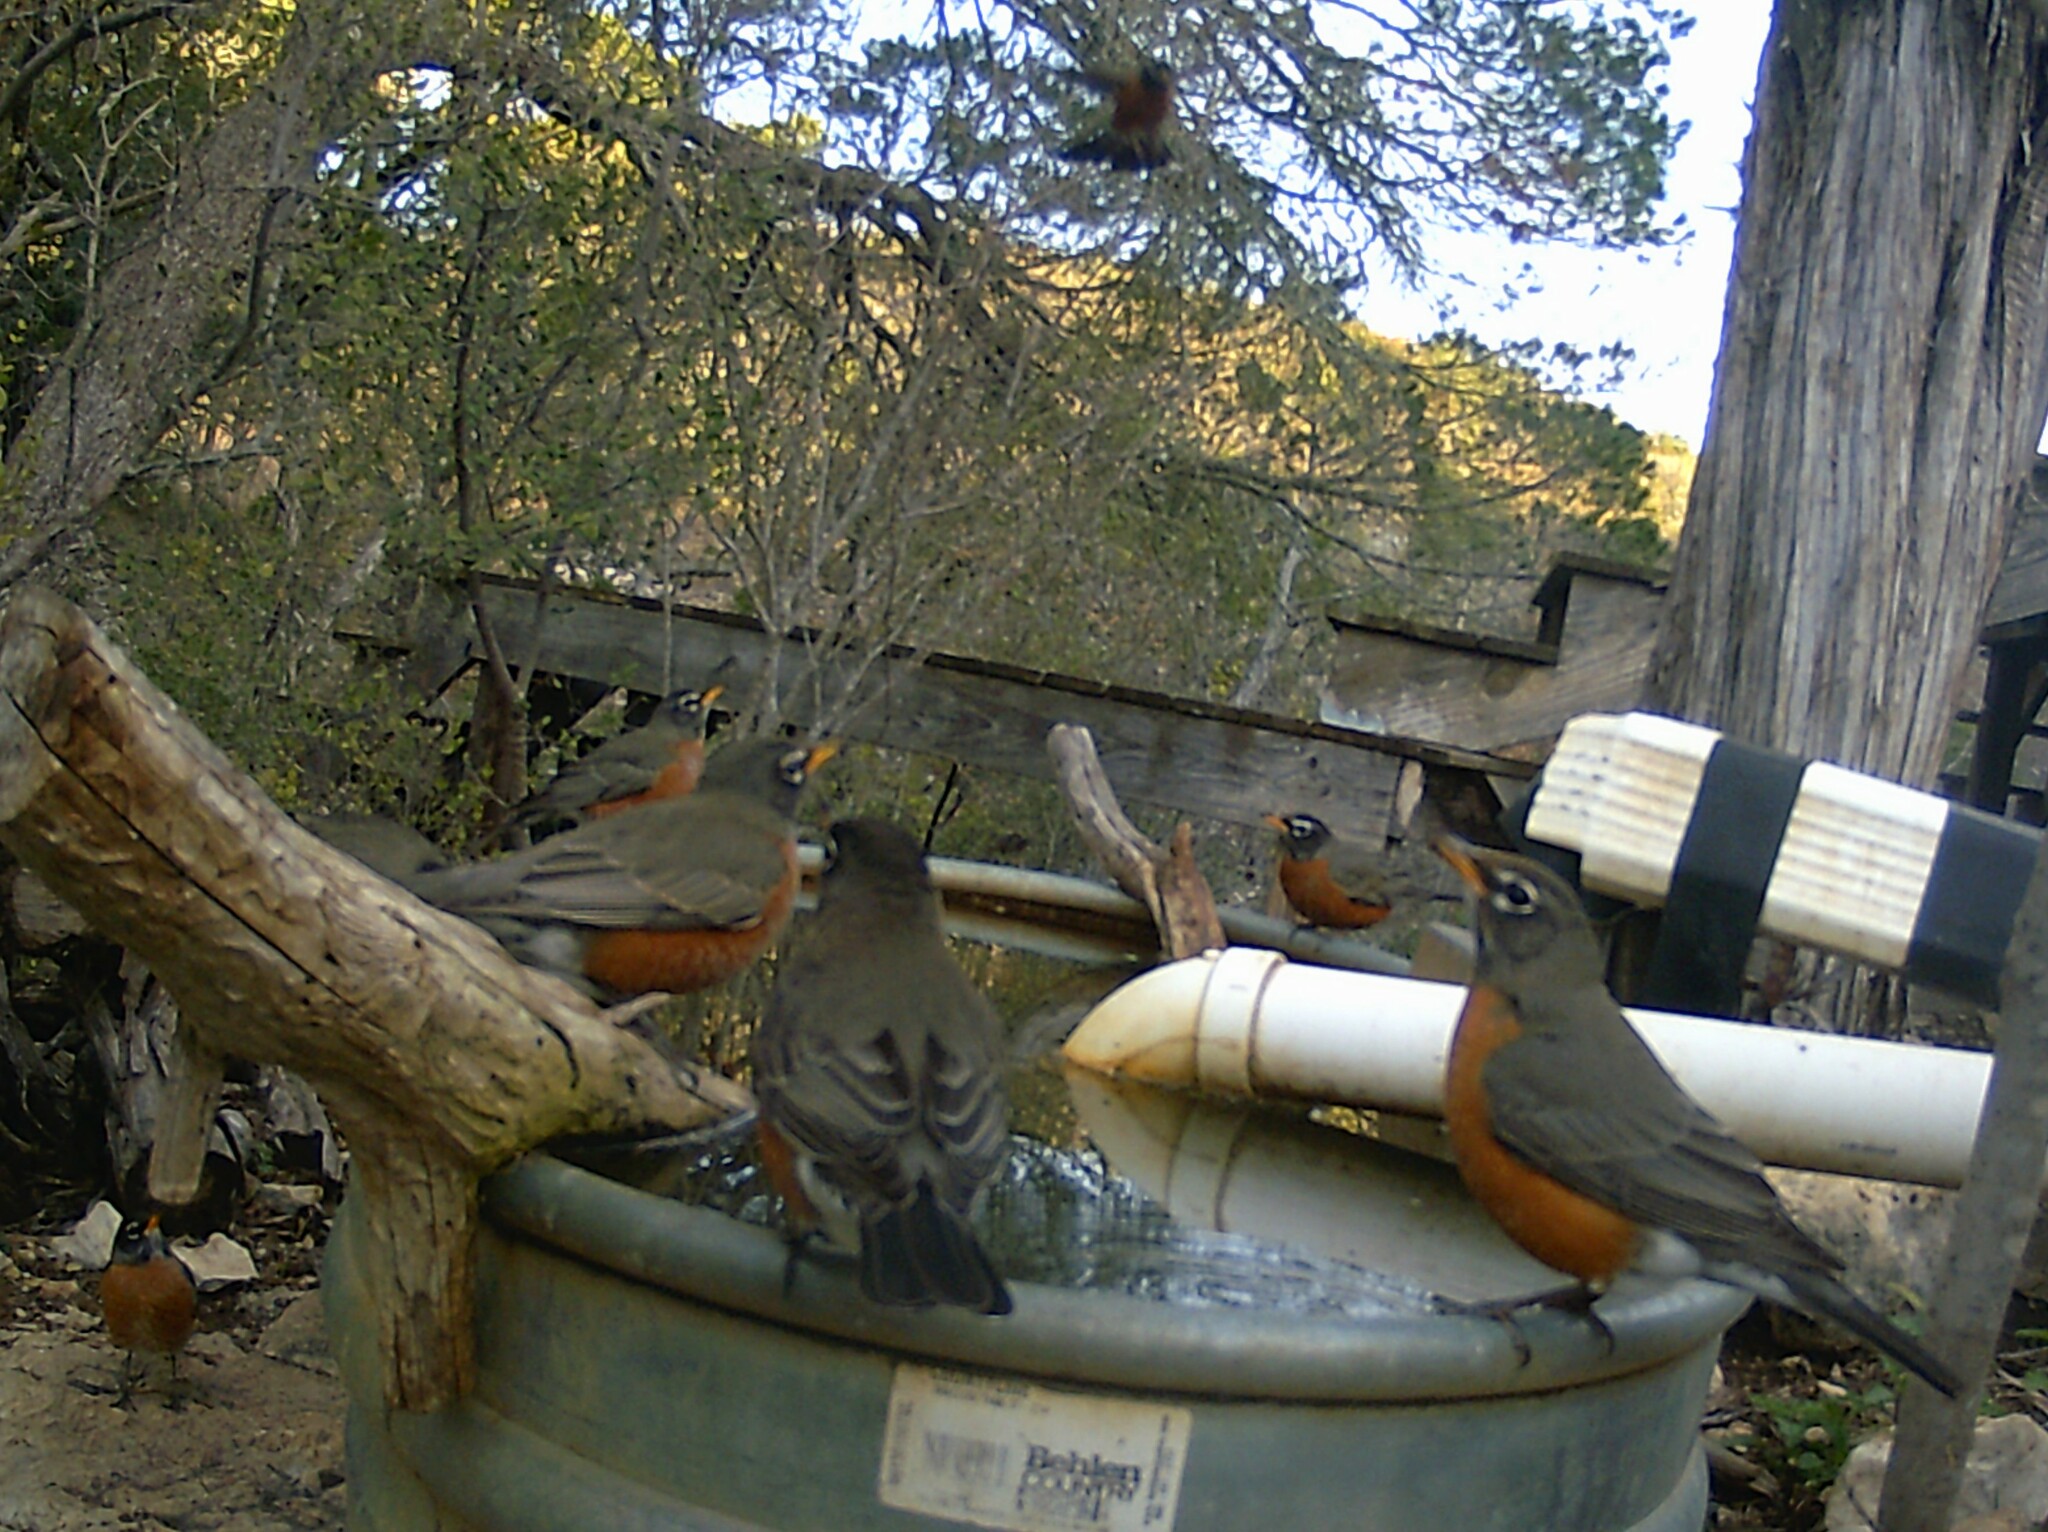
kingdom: Animalia
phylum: Chordata
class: Aves
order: Passeriformes
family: Turdidae
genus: Turdus
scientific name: Turdus migratorius
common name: American robin
